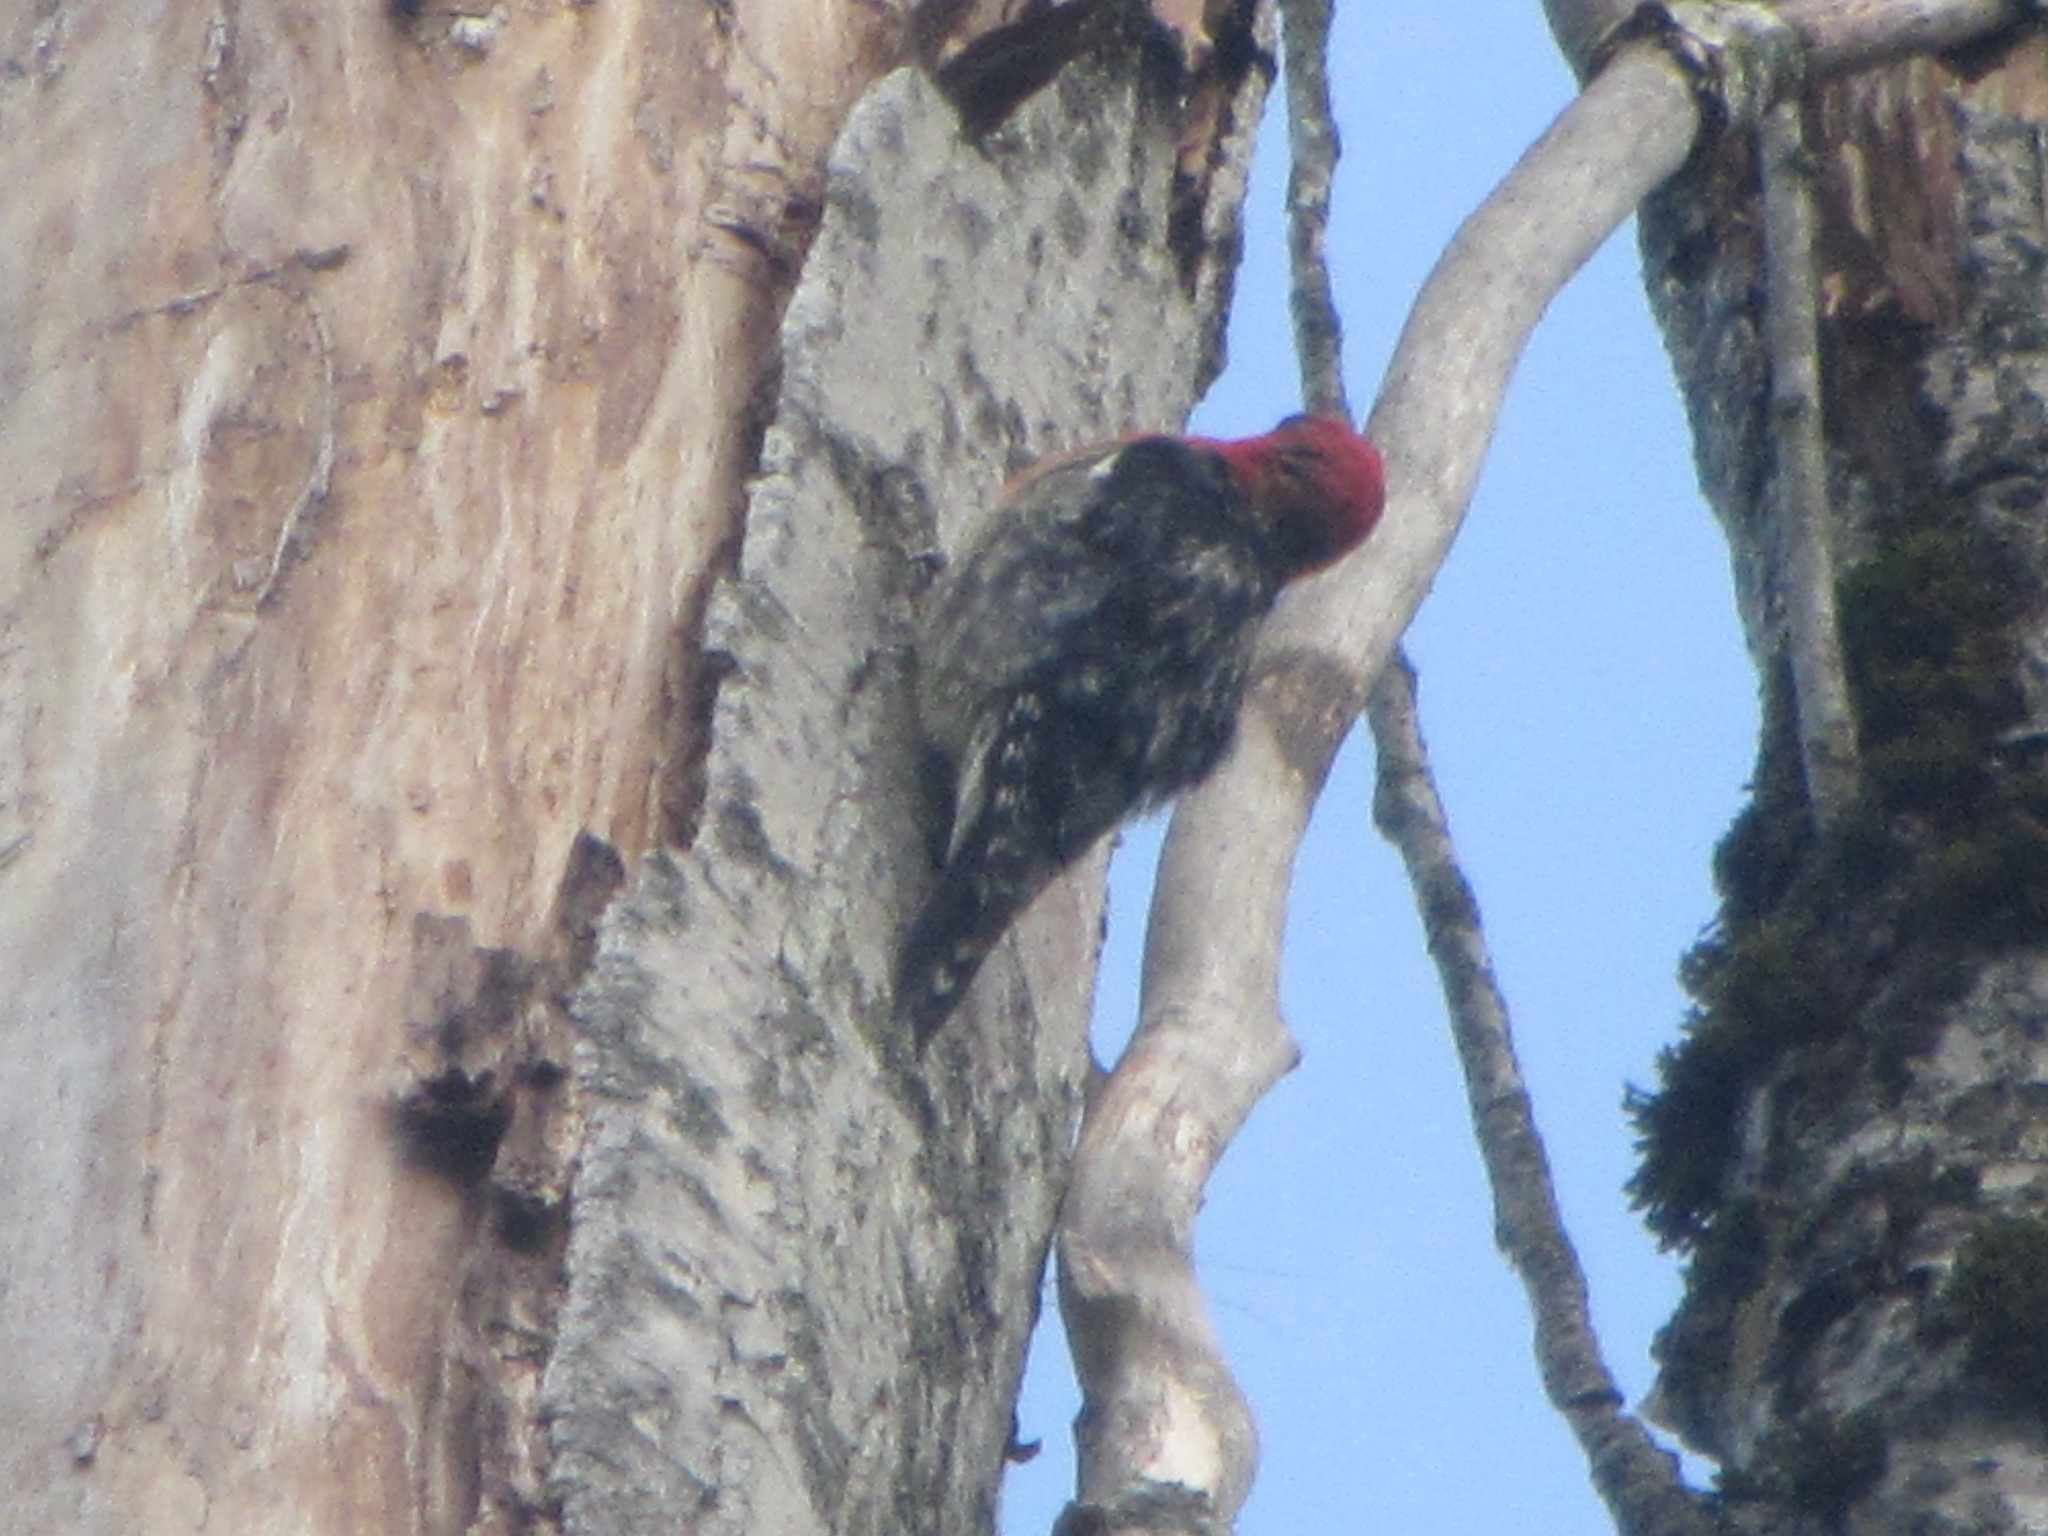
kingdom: Animalia
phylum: Chordata
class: Aves
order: Piciformes
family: Picidae
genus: Sphyrapicus
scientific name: Sphyrapicus ruber
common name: Red-breasted sapsucker
